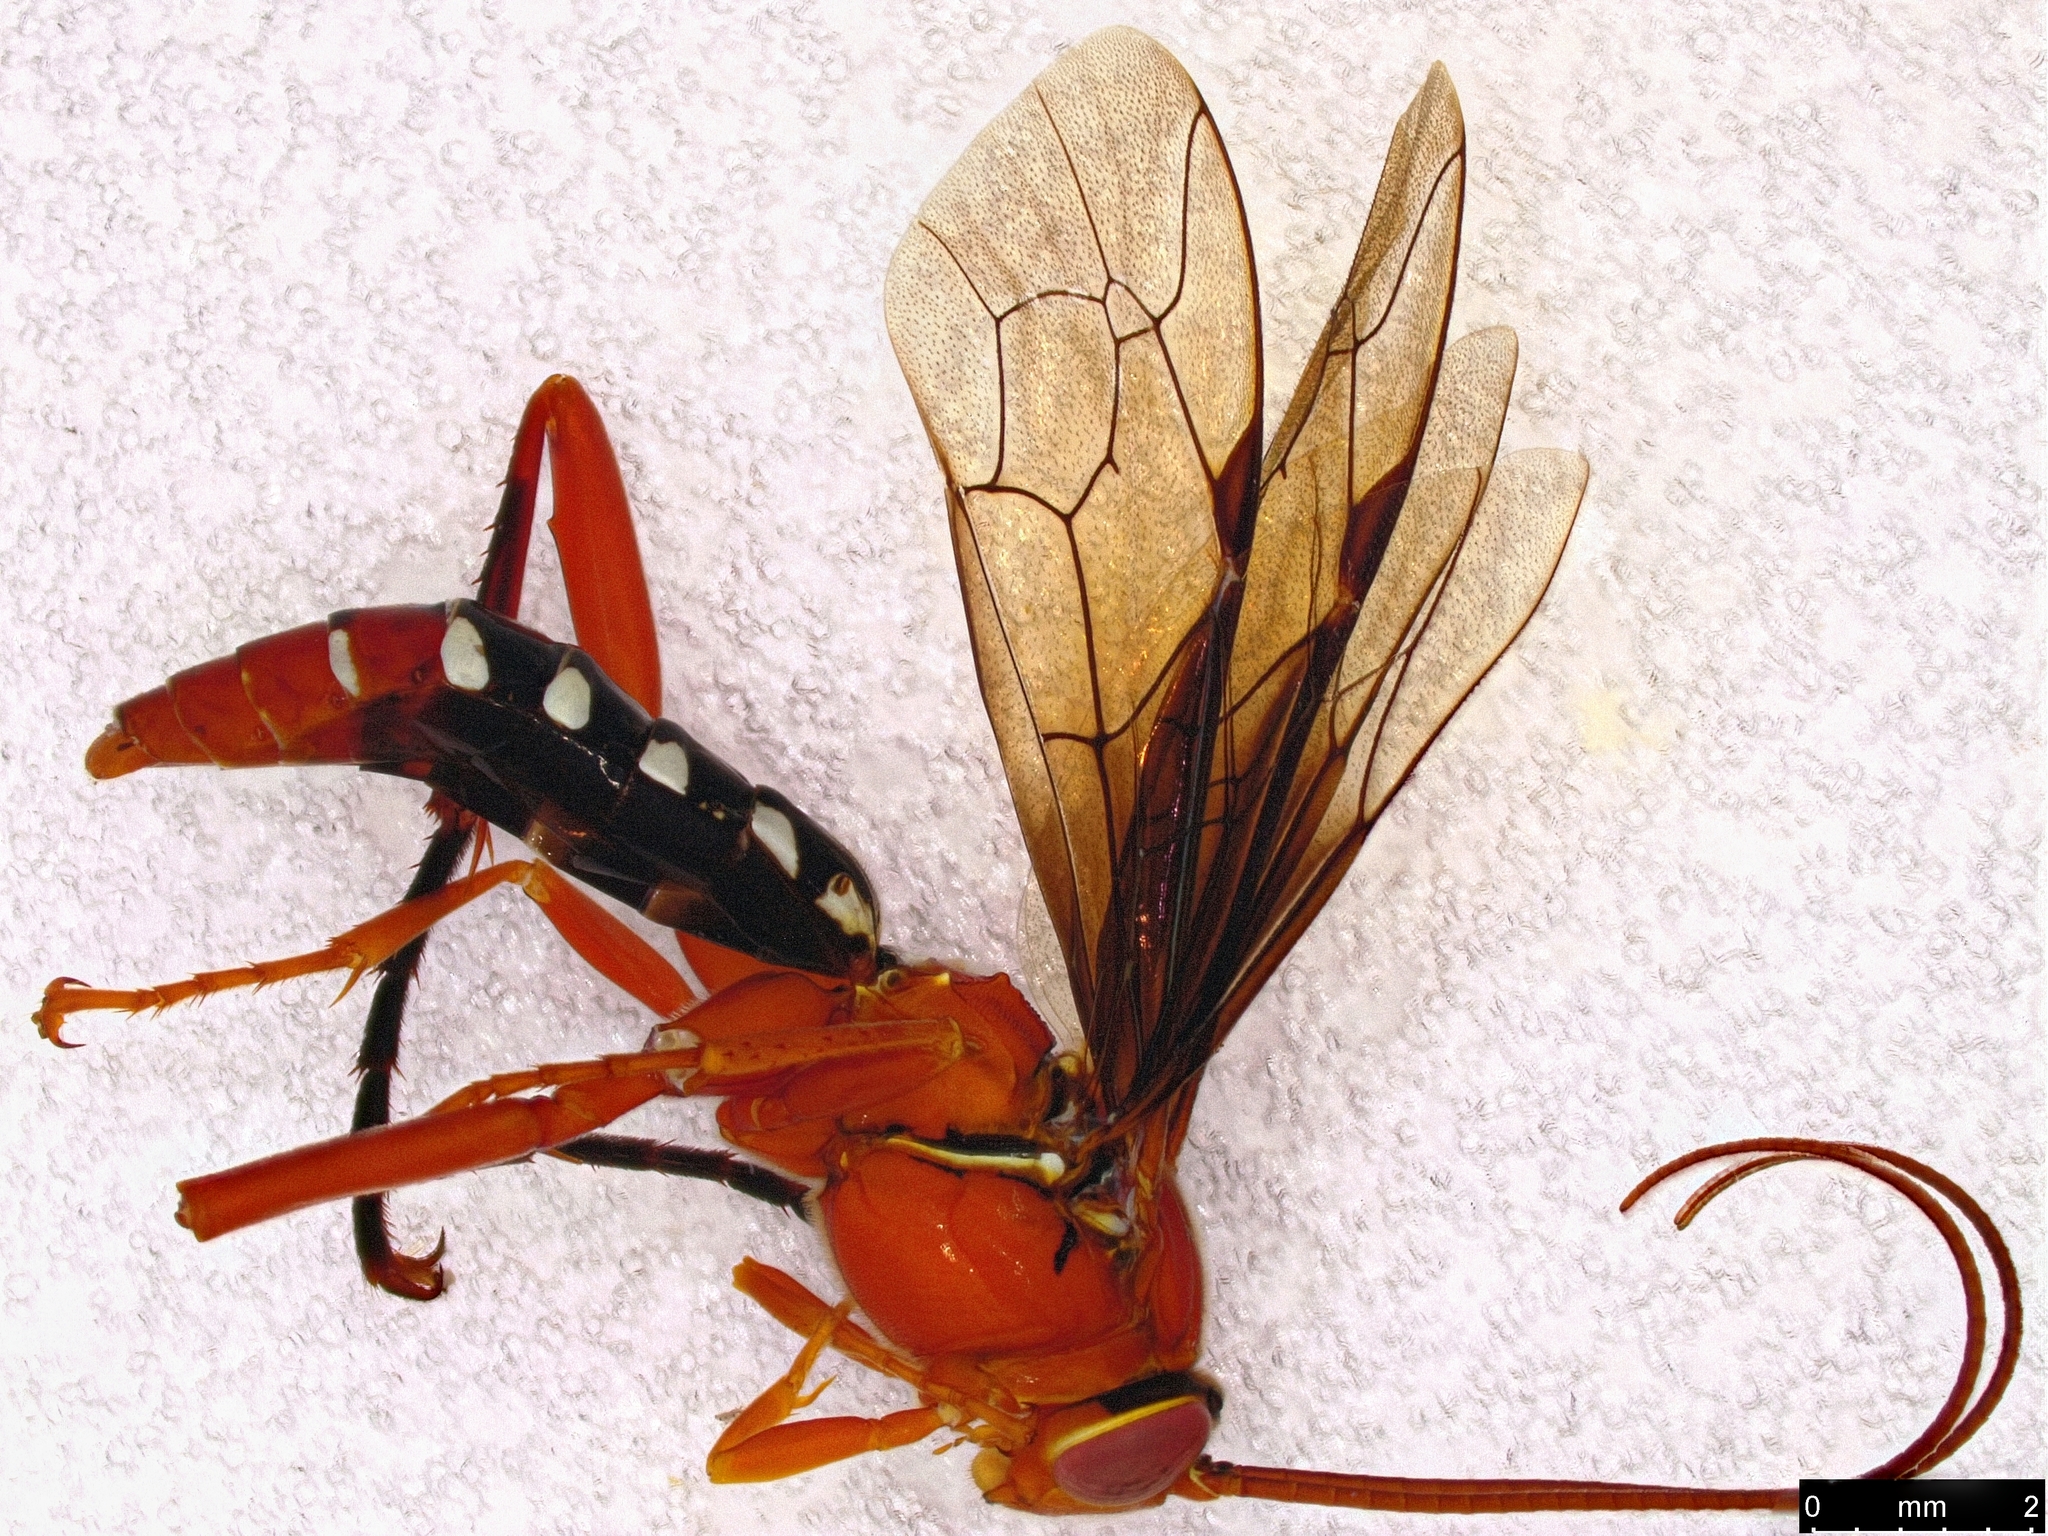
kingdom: Animalia
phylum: Arthropoda
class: Insecta
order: Hymenoptera
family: Ichneumonidae
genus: Lissopimpla
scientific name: Lissopimpla excelsa
